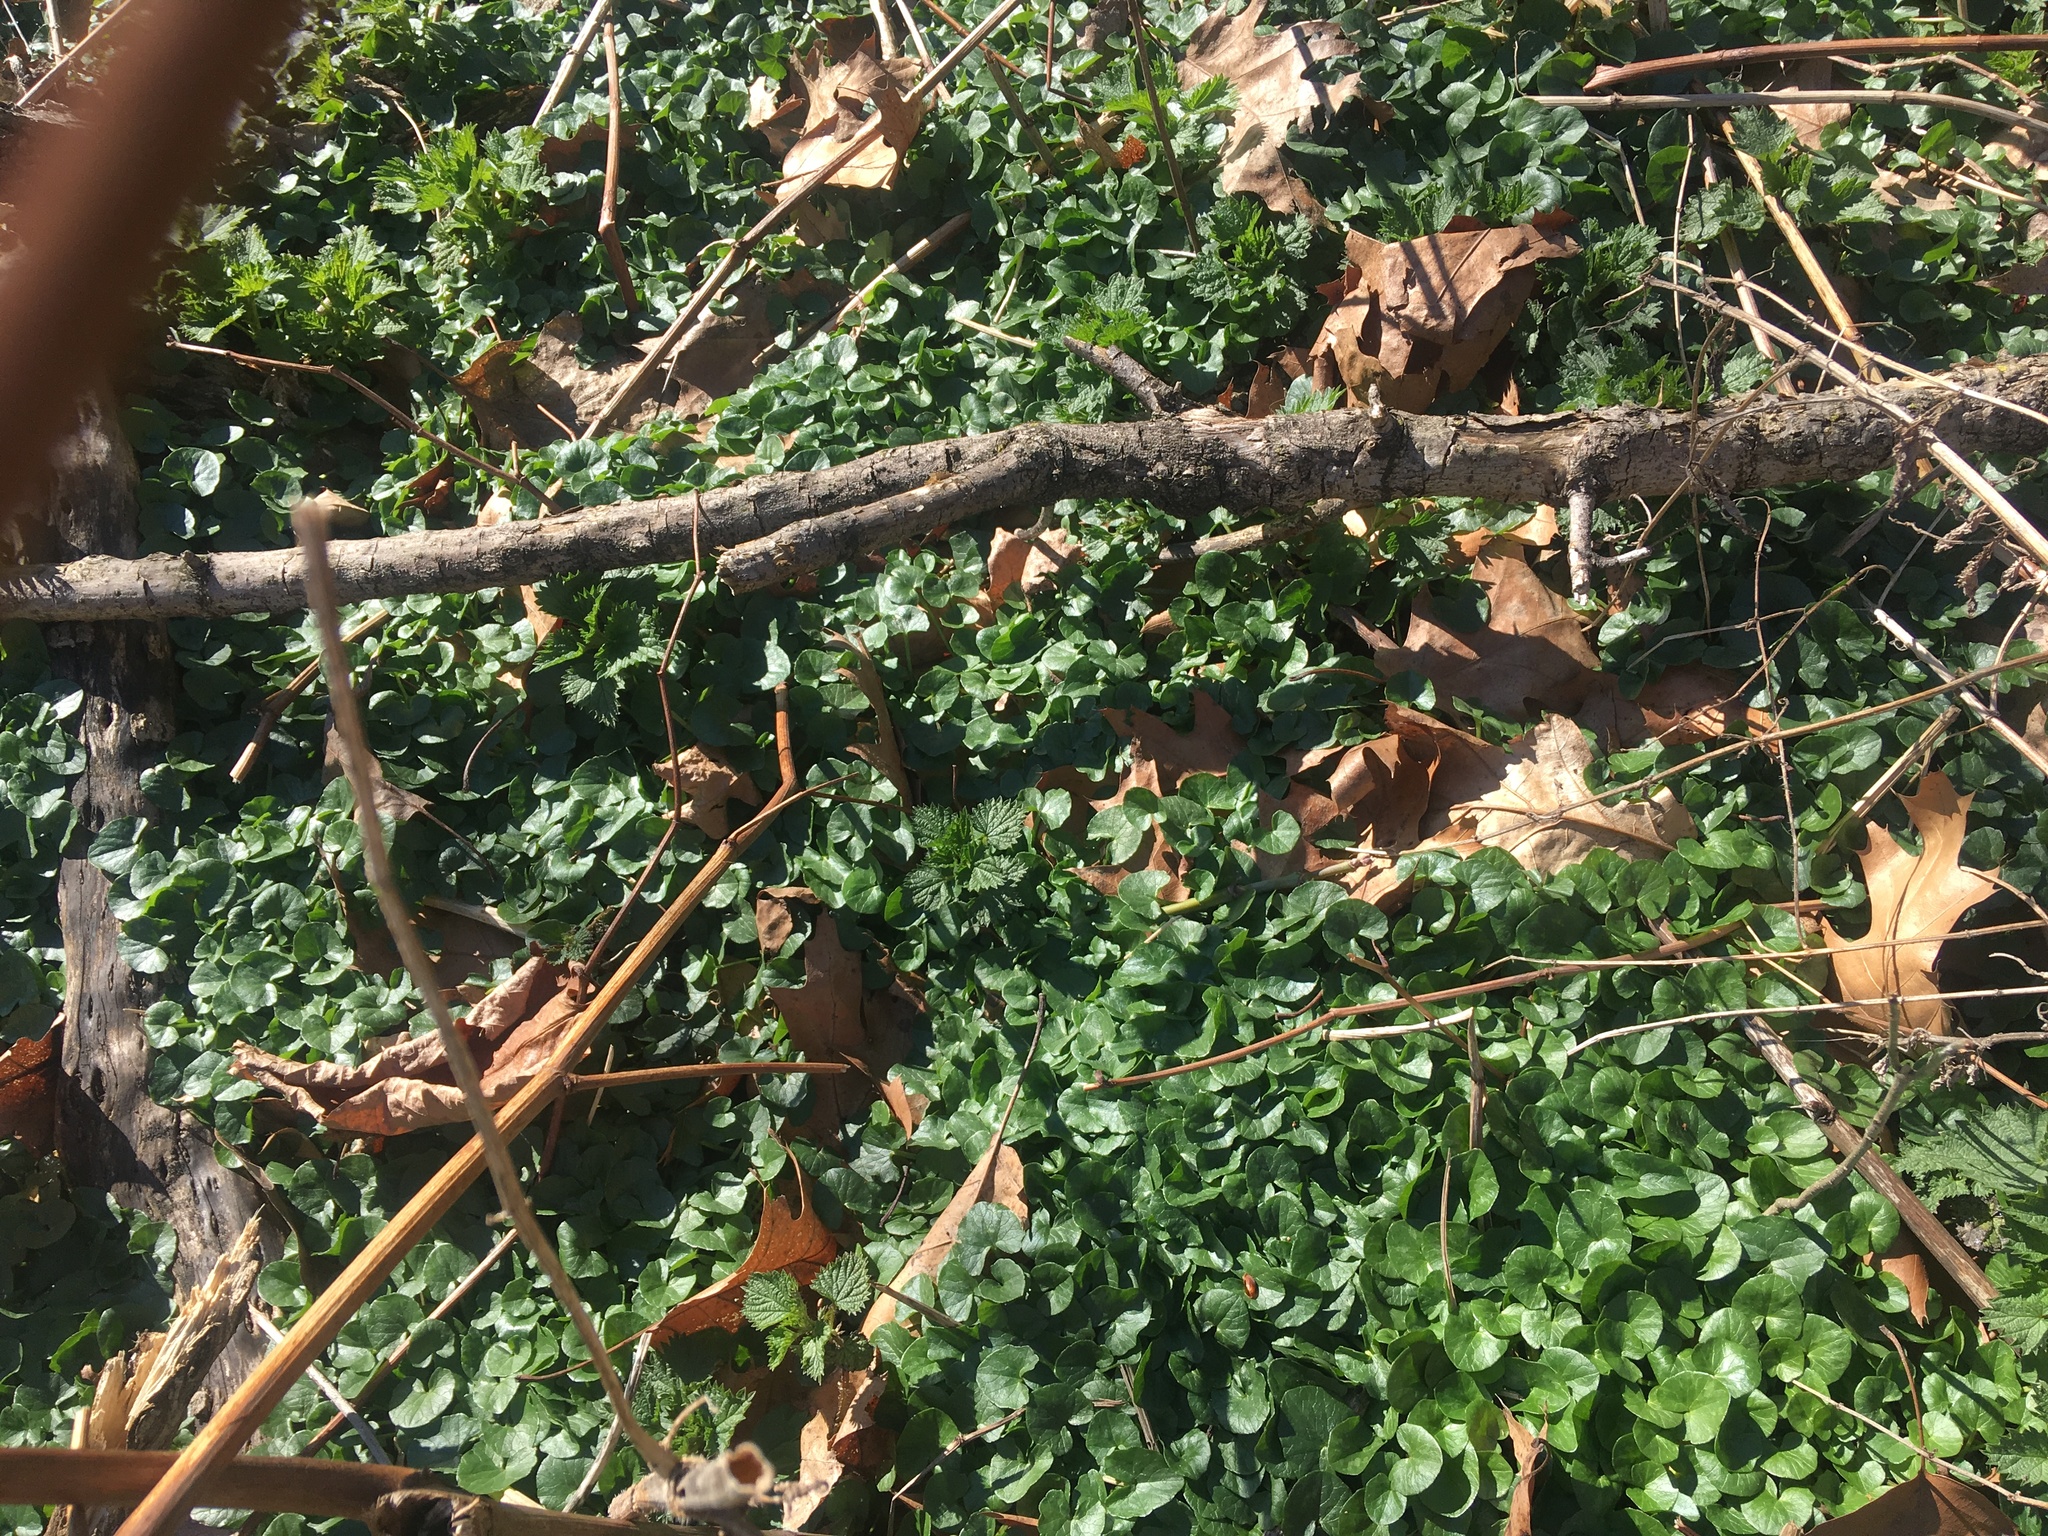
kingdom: Plantae
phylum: Tracheophyta
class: Magnoliopsida
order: Ranunculales
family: Ranunculaceae
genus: Ficaria
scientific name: Ficaria verna
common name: Lesser celandine
